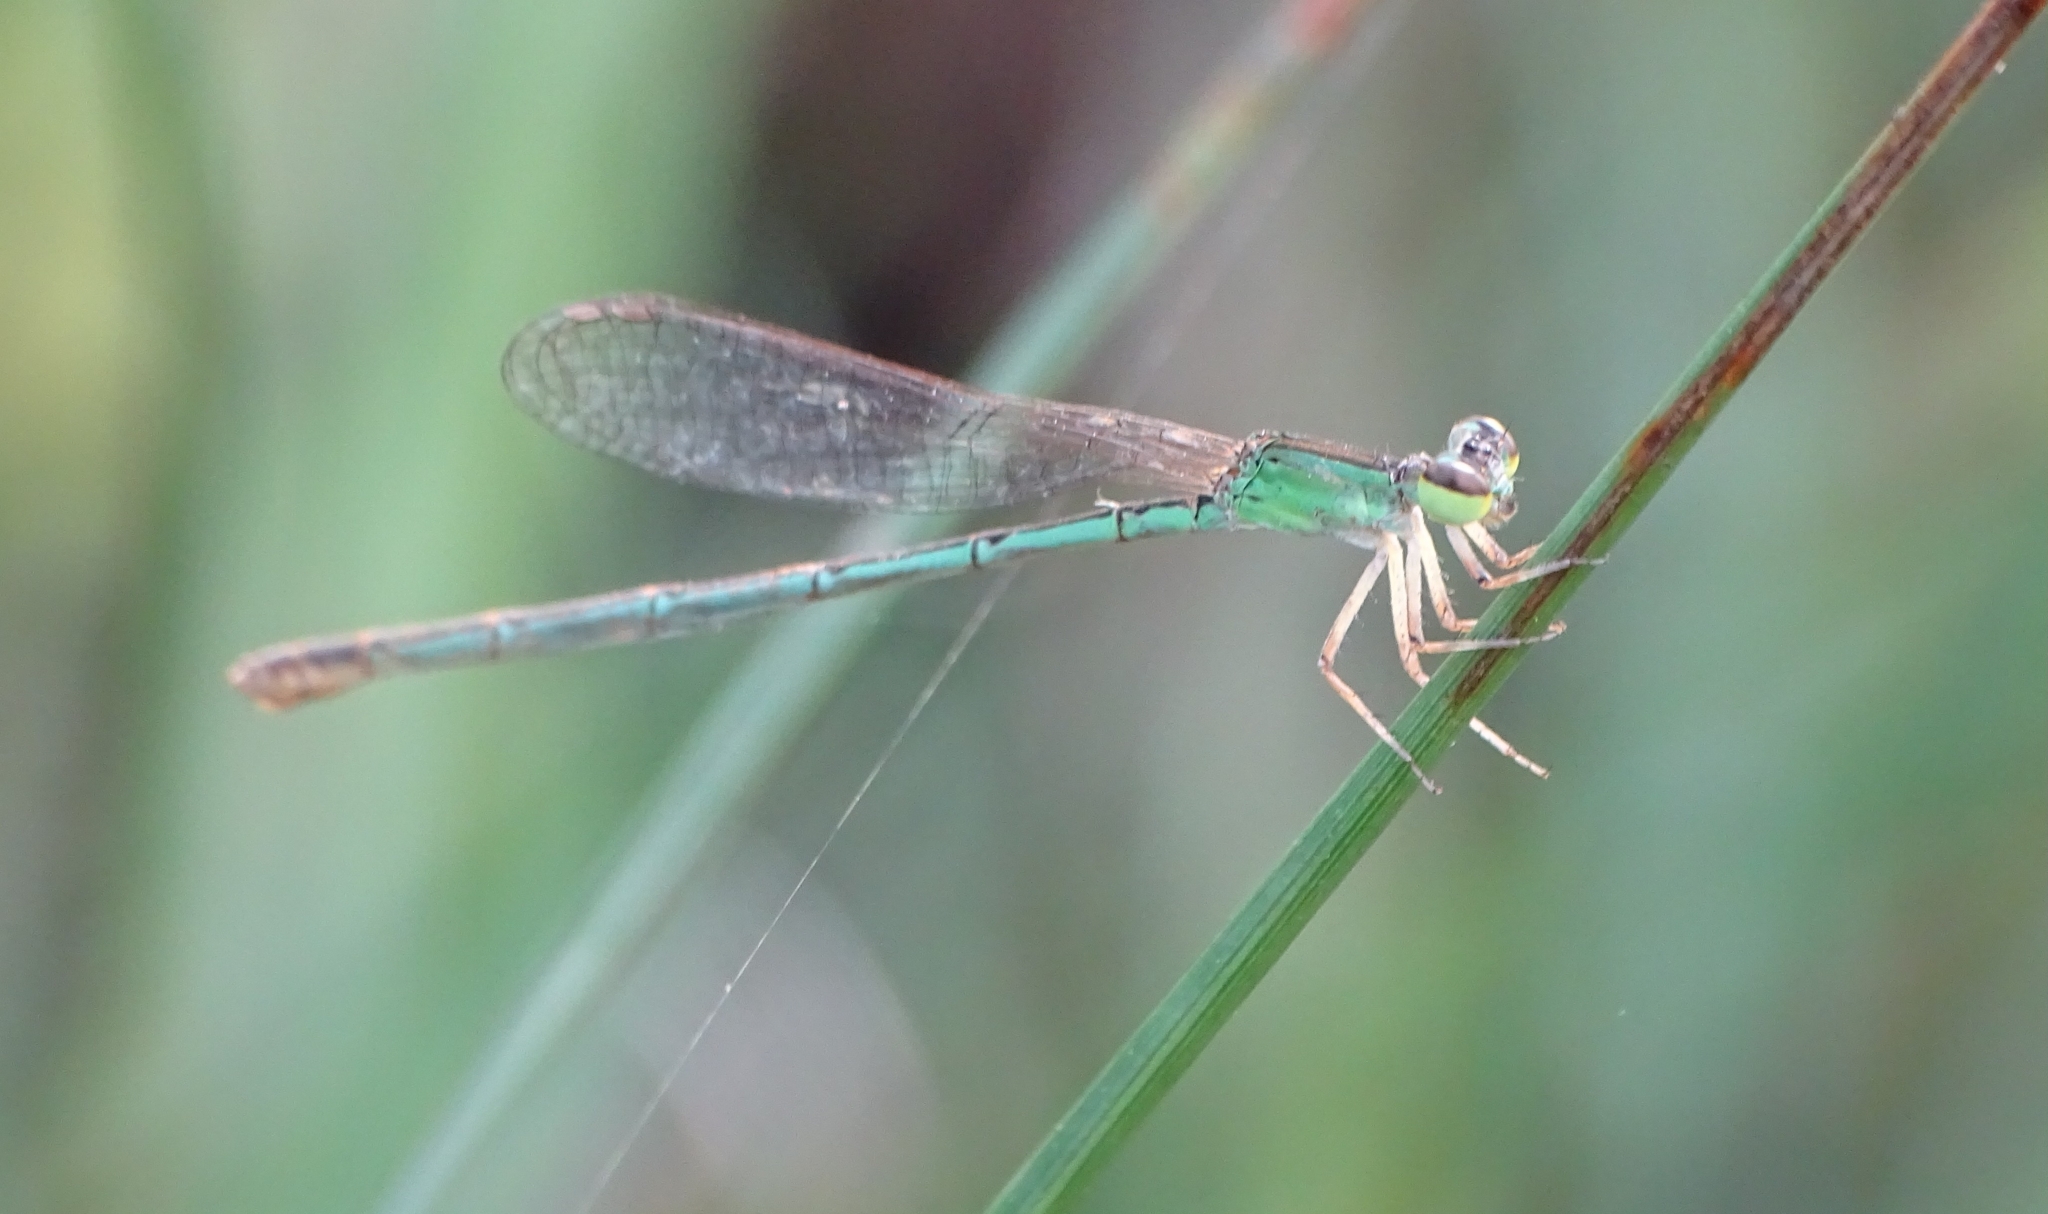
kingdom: Animalia
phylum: Arthropoda
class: Insecta
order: Odonata
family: Coenagrionidae
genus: Agriocnemis
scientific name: Agriocnemis pygmaea
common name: Pygmy wisp
